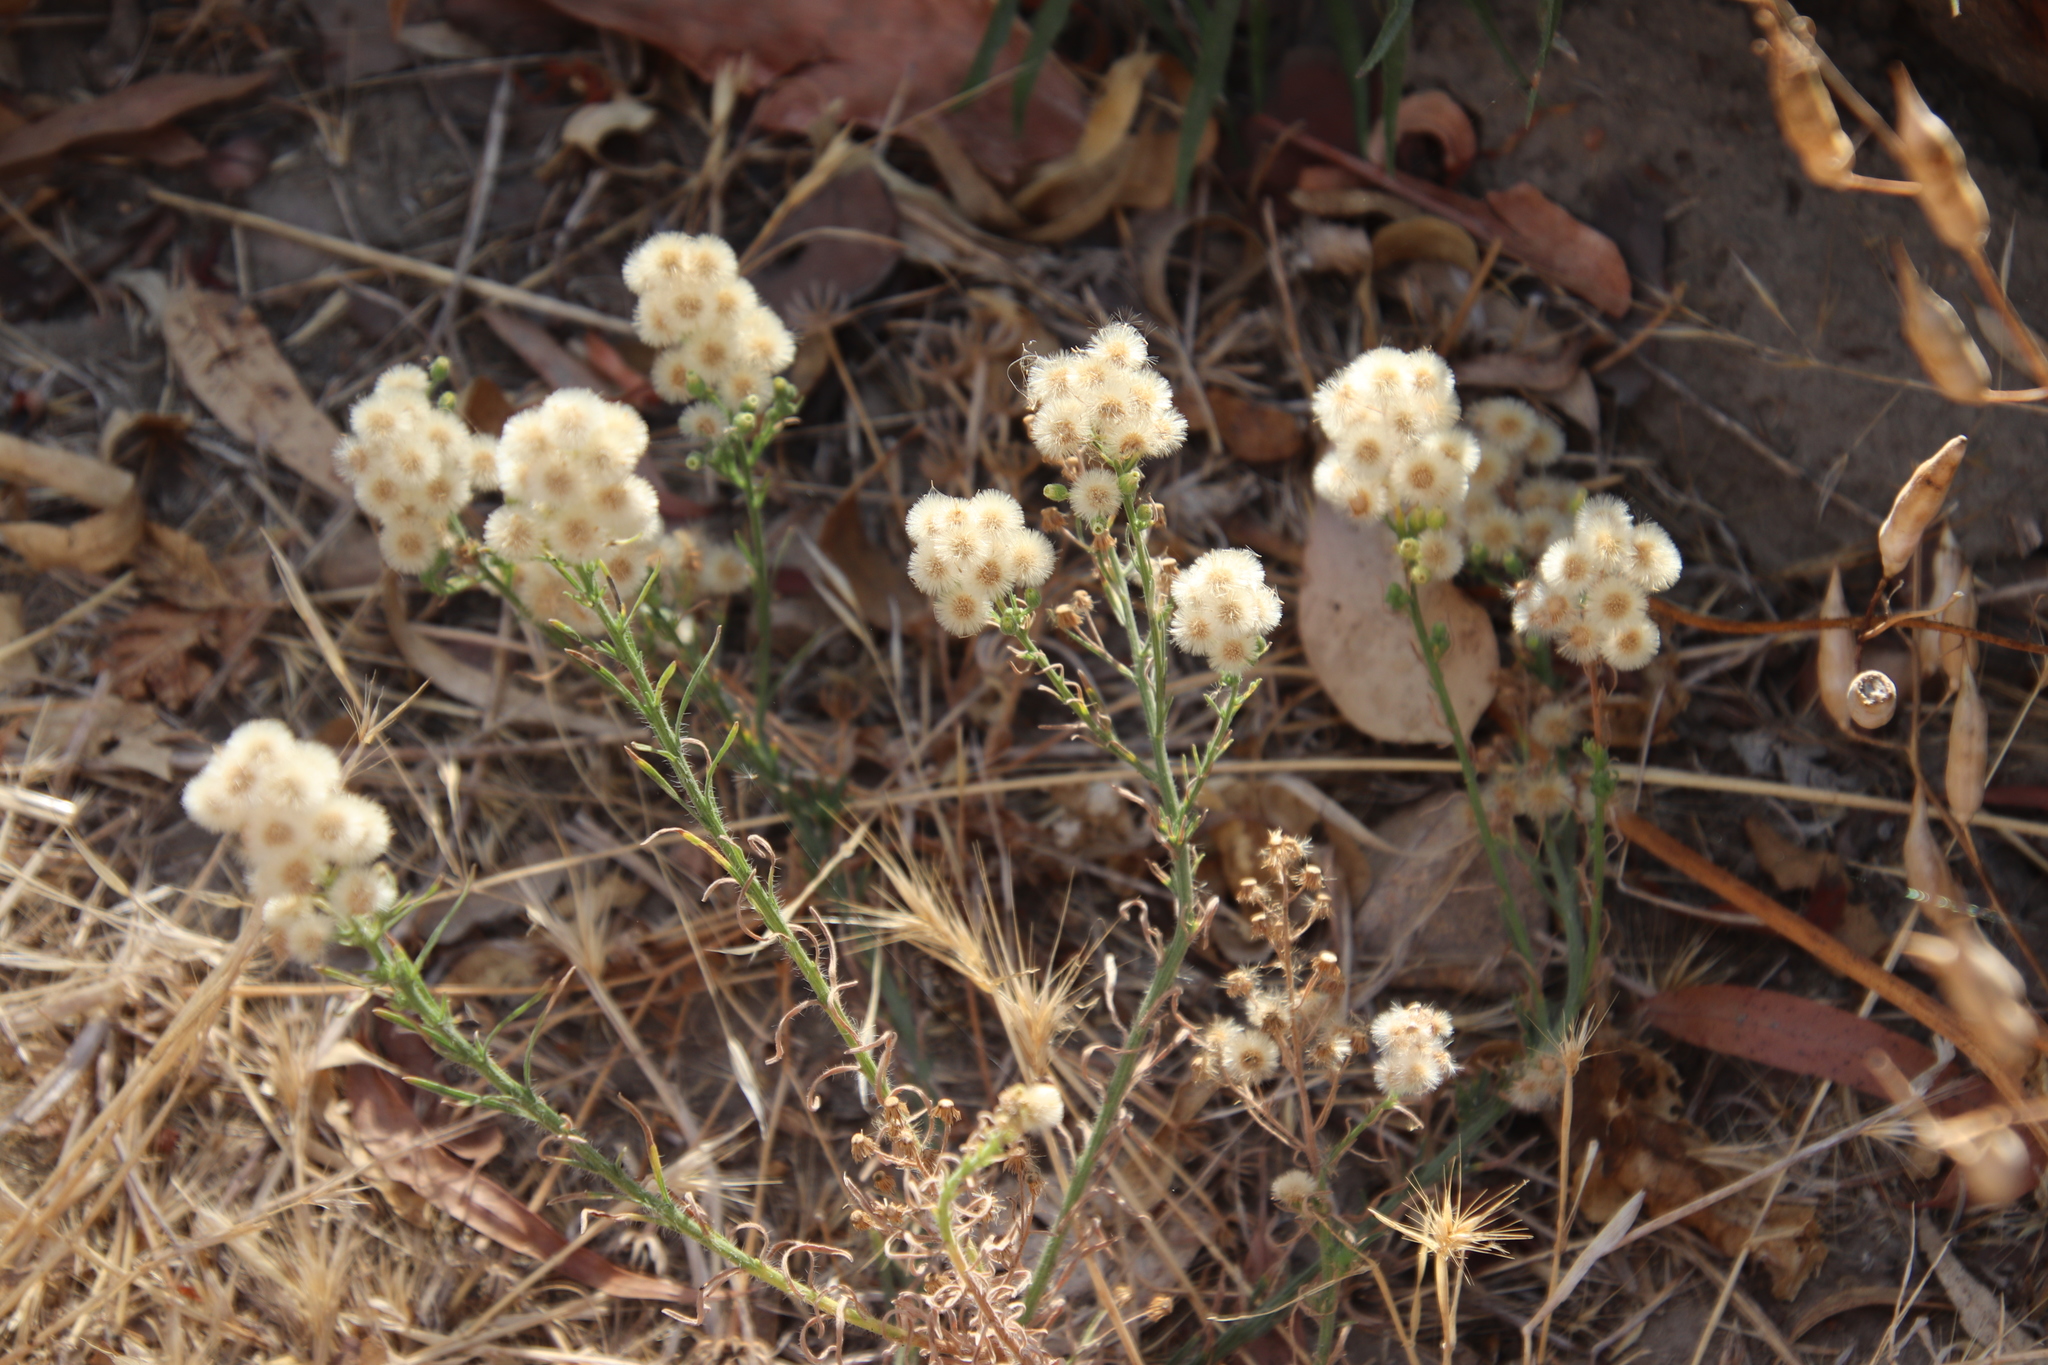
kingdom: Plantae
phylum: Tracheophyta
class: Magnoliopsida
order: Asterales
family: Asteraceae
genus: Erigeron
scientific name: Erigeron bonariensis
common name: Argentine fleabane
